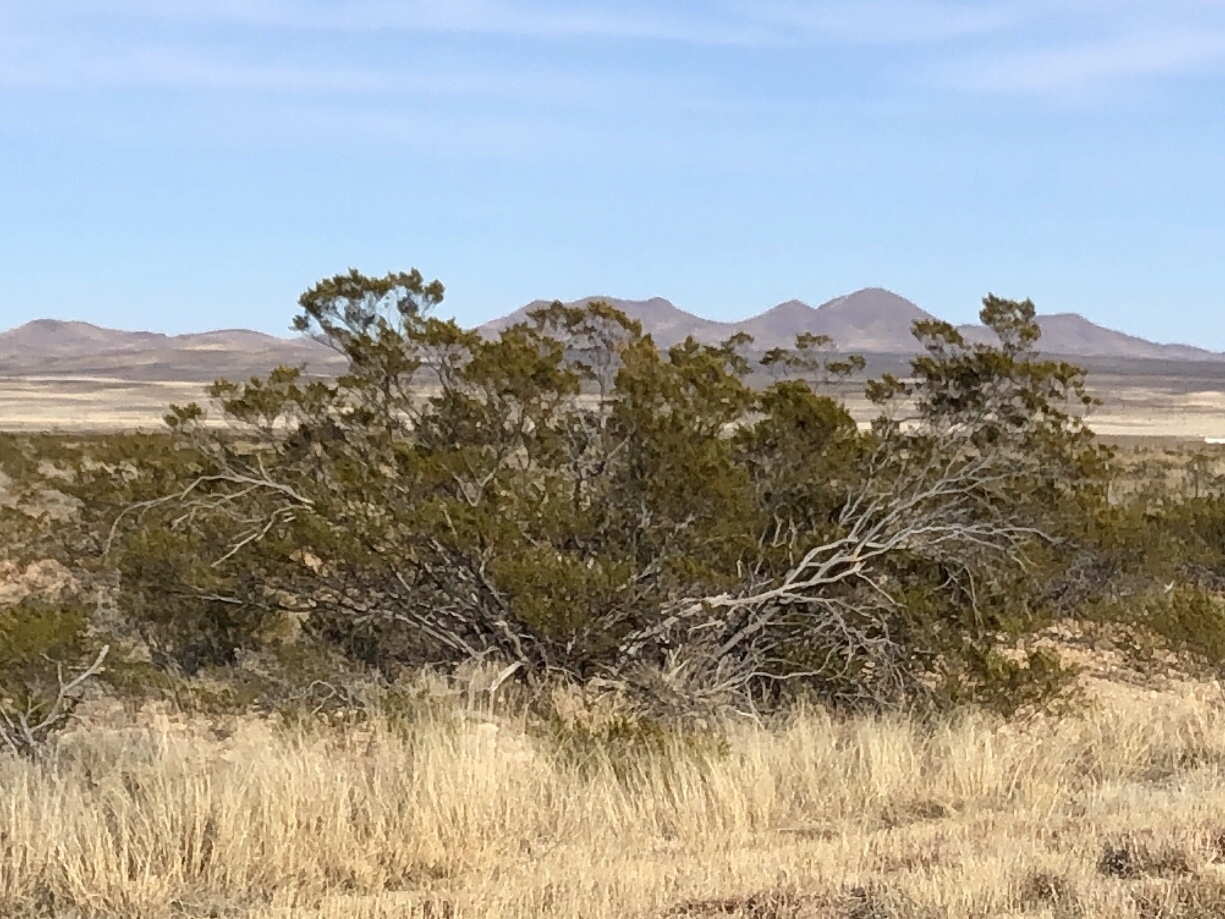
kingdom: Plantae
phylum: Tracheophyta
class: Magnoliopsida
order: Zygophyllales
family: Zygophyllaceae
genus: Larrea
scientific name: Larrea tridentata
